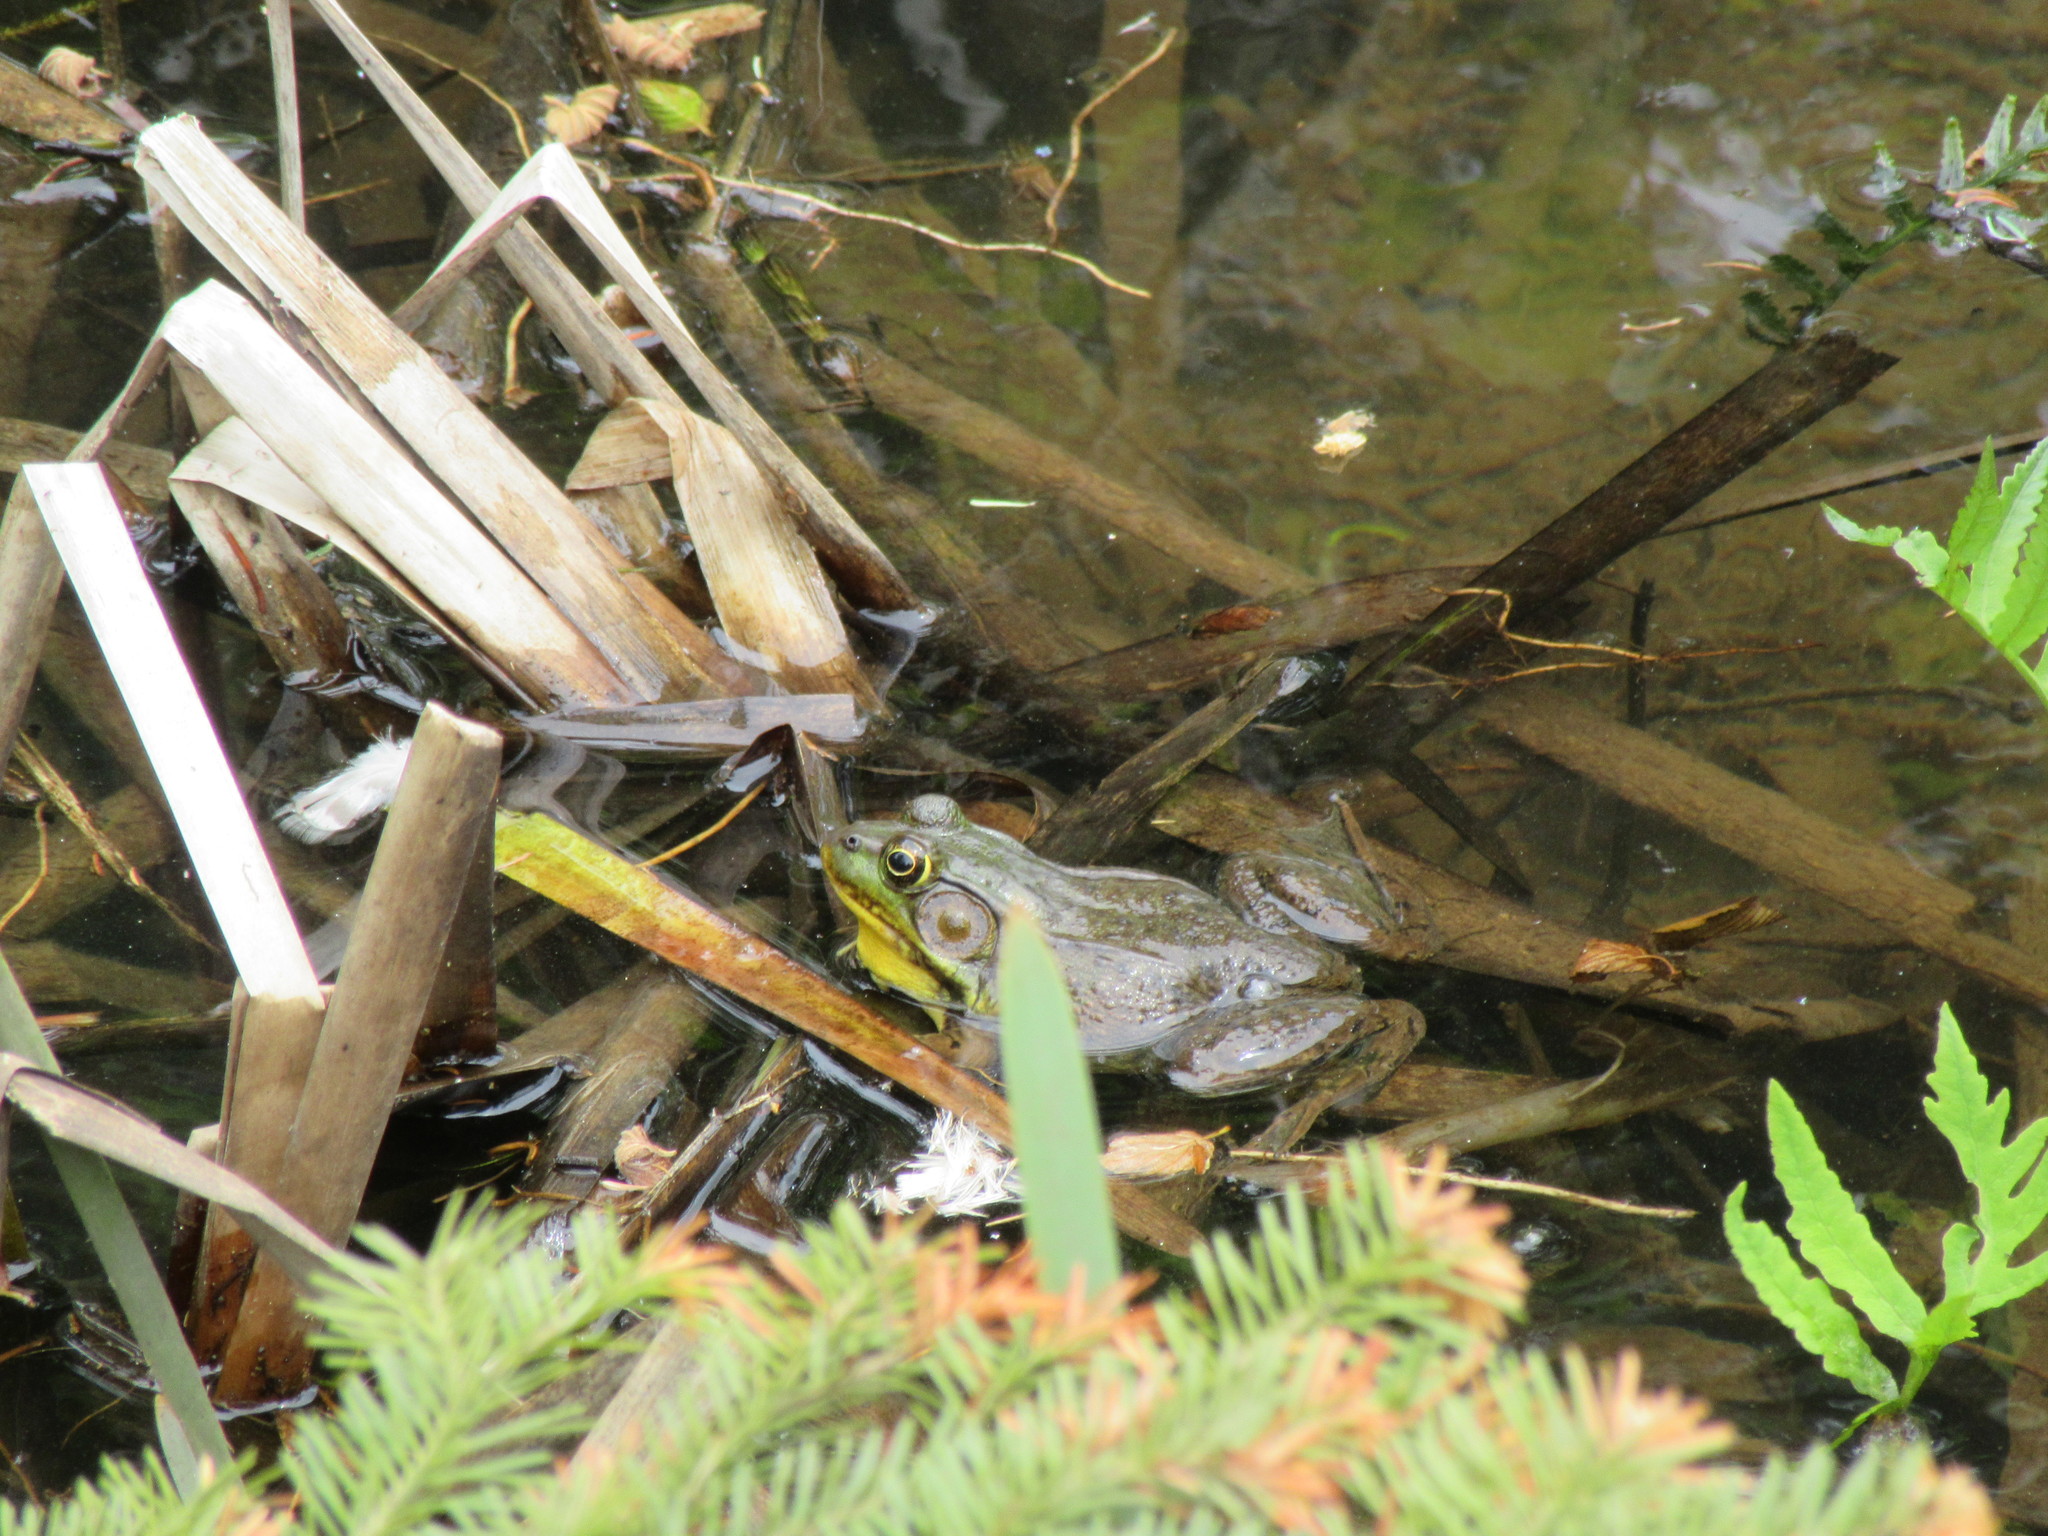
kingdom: Animalia
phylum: Chordata
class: Amphibia
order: Anura
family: Ranidae
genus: Lithobates
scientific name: Lithobates clamitans
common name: Green frog
